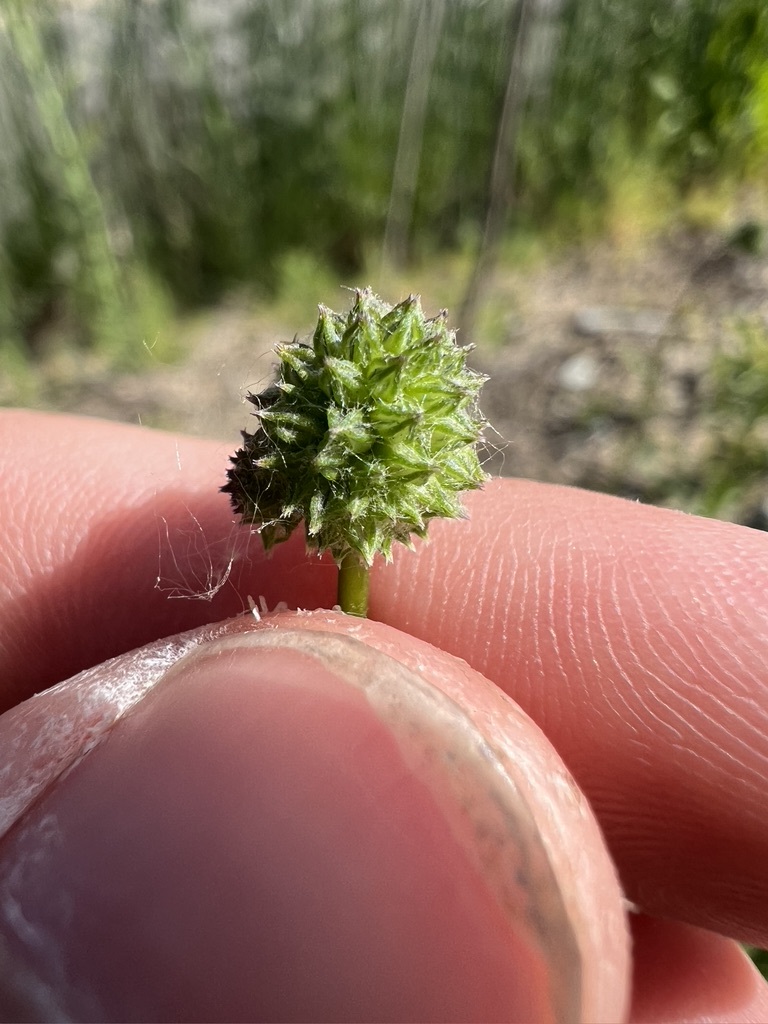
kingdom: Plantae
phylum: Tracheophyta
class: Magnoliopsida
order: Ericales
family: Polemoniaceae
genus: Gilia
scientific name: Gilia capitata
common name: Bluehead gilia
